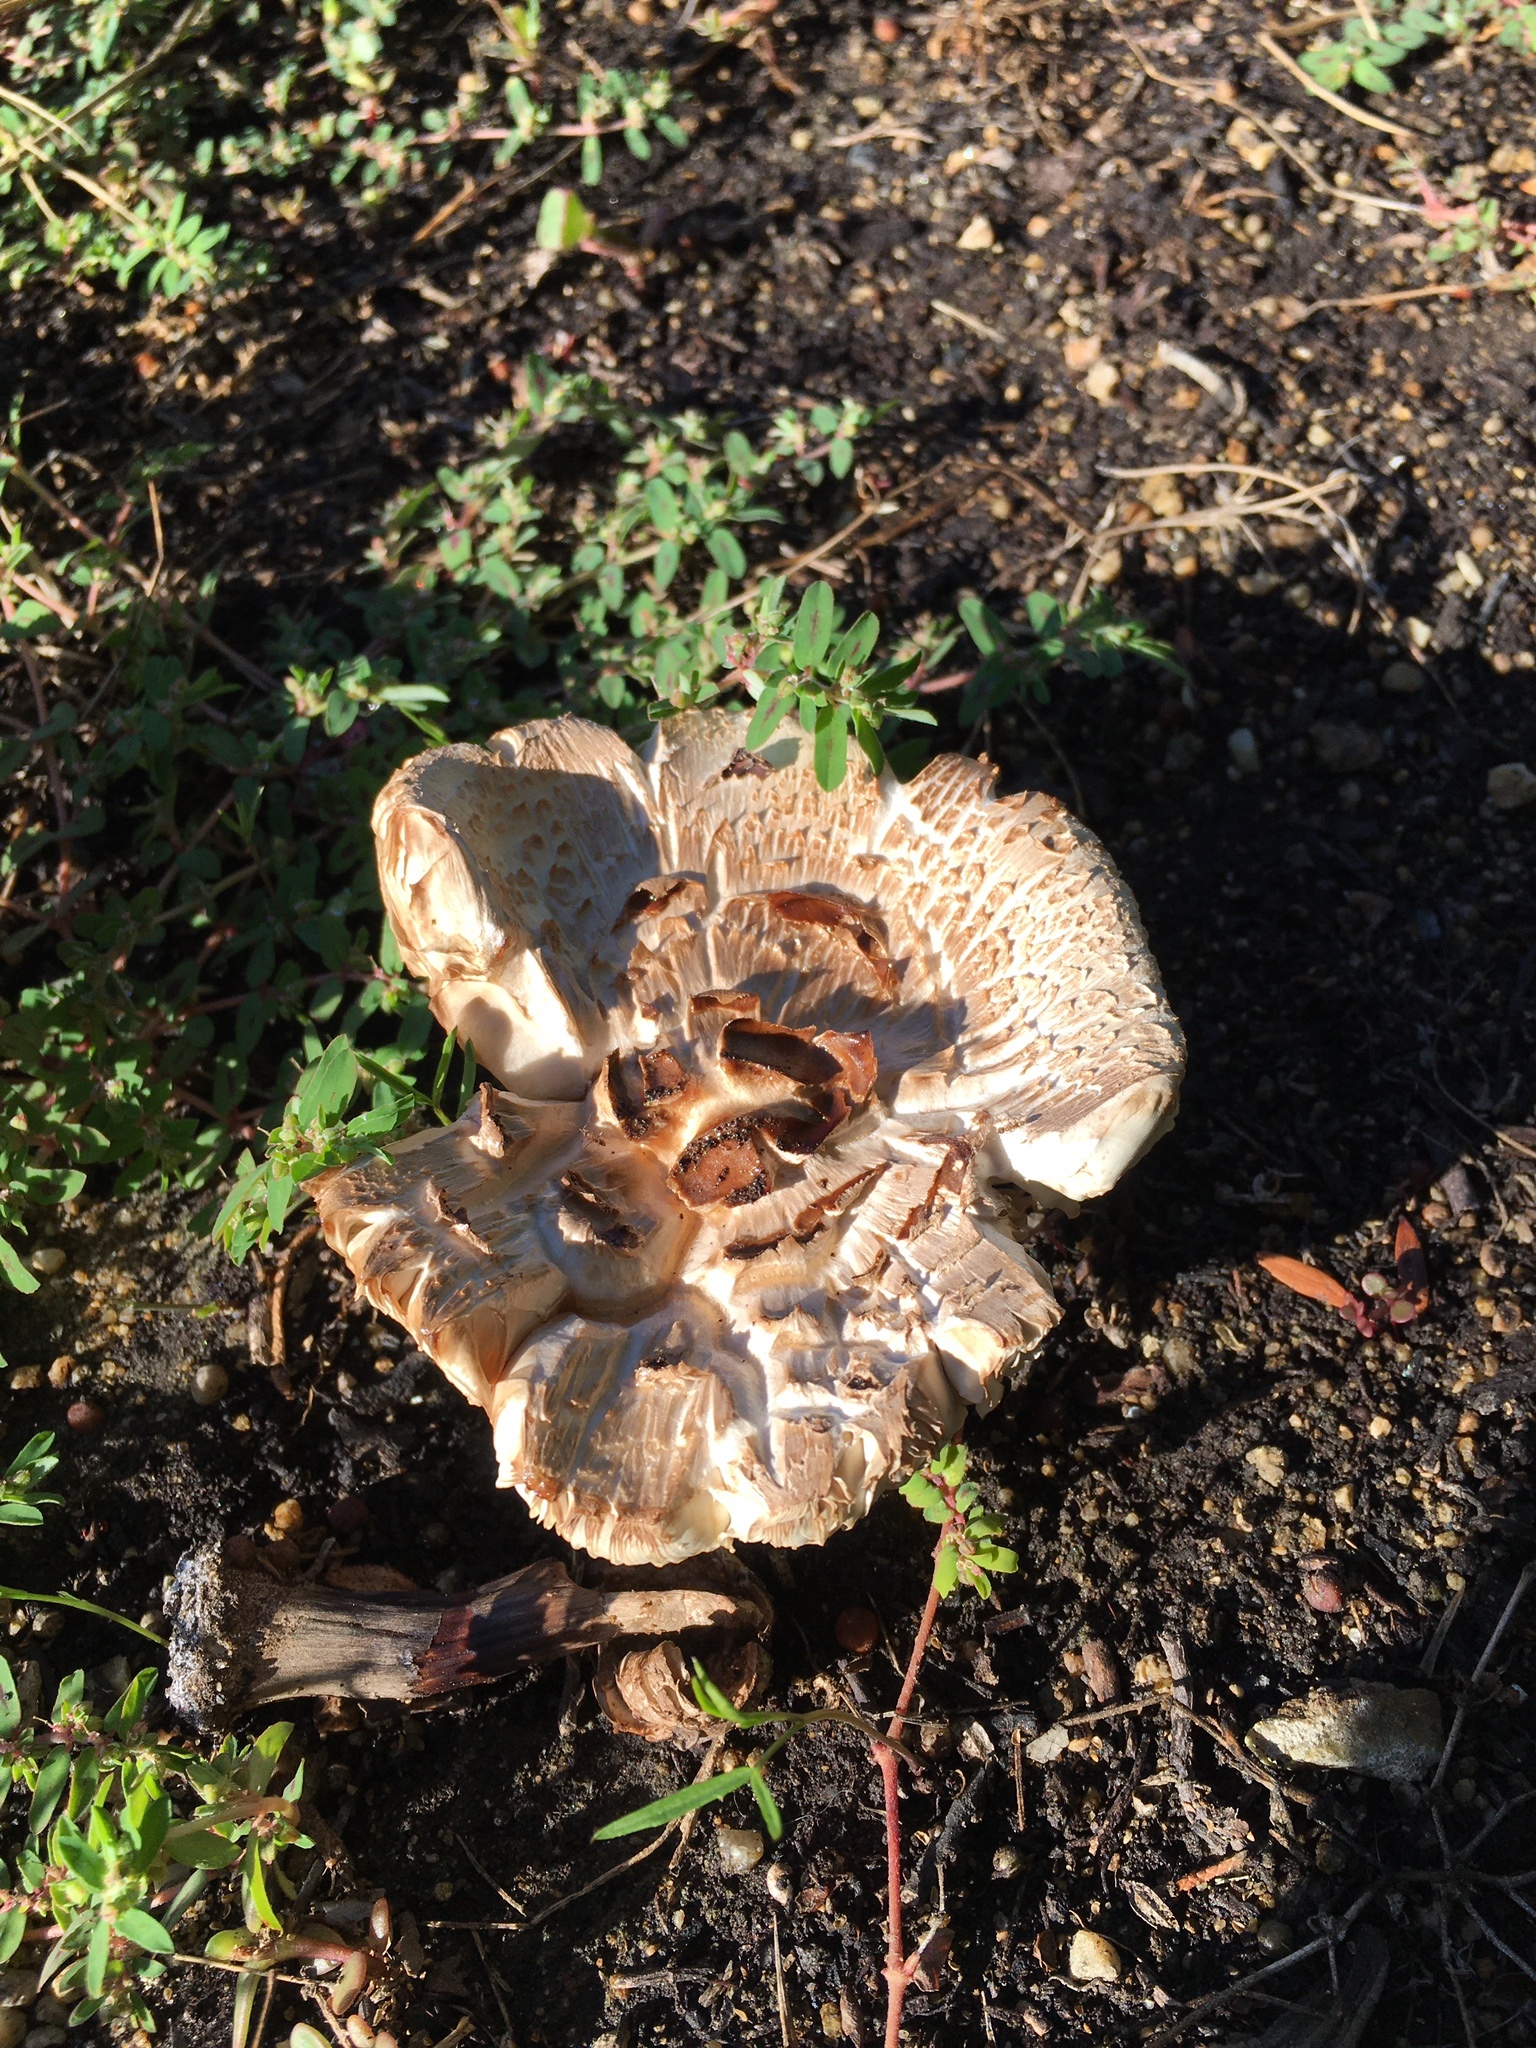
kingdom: Fungi
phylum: Basidiomycota
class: Agaricomycetes
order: Agaricales
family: Agaricaceae
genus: Chlorophyllum
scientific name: Chlorophyllum rhacodes
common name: Shaggy parasol
